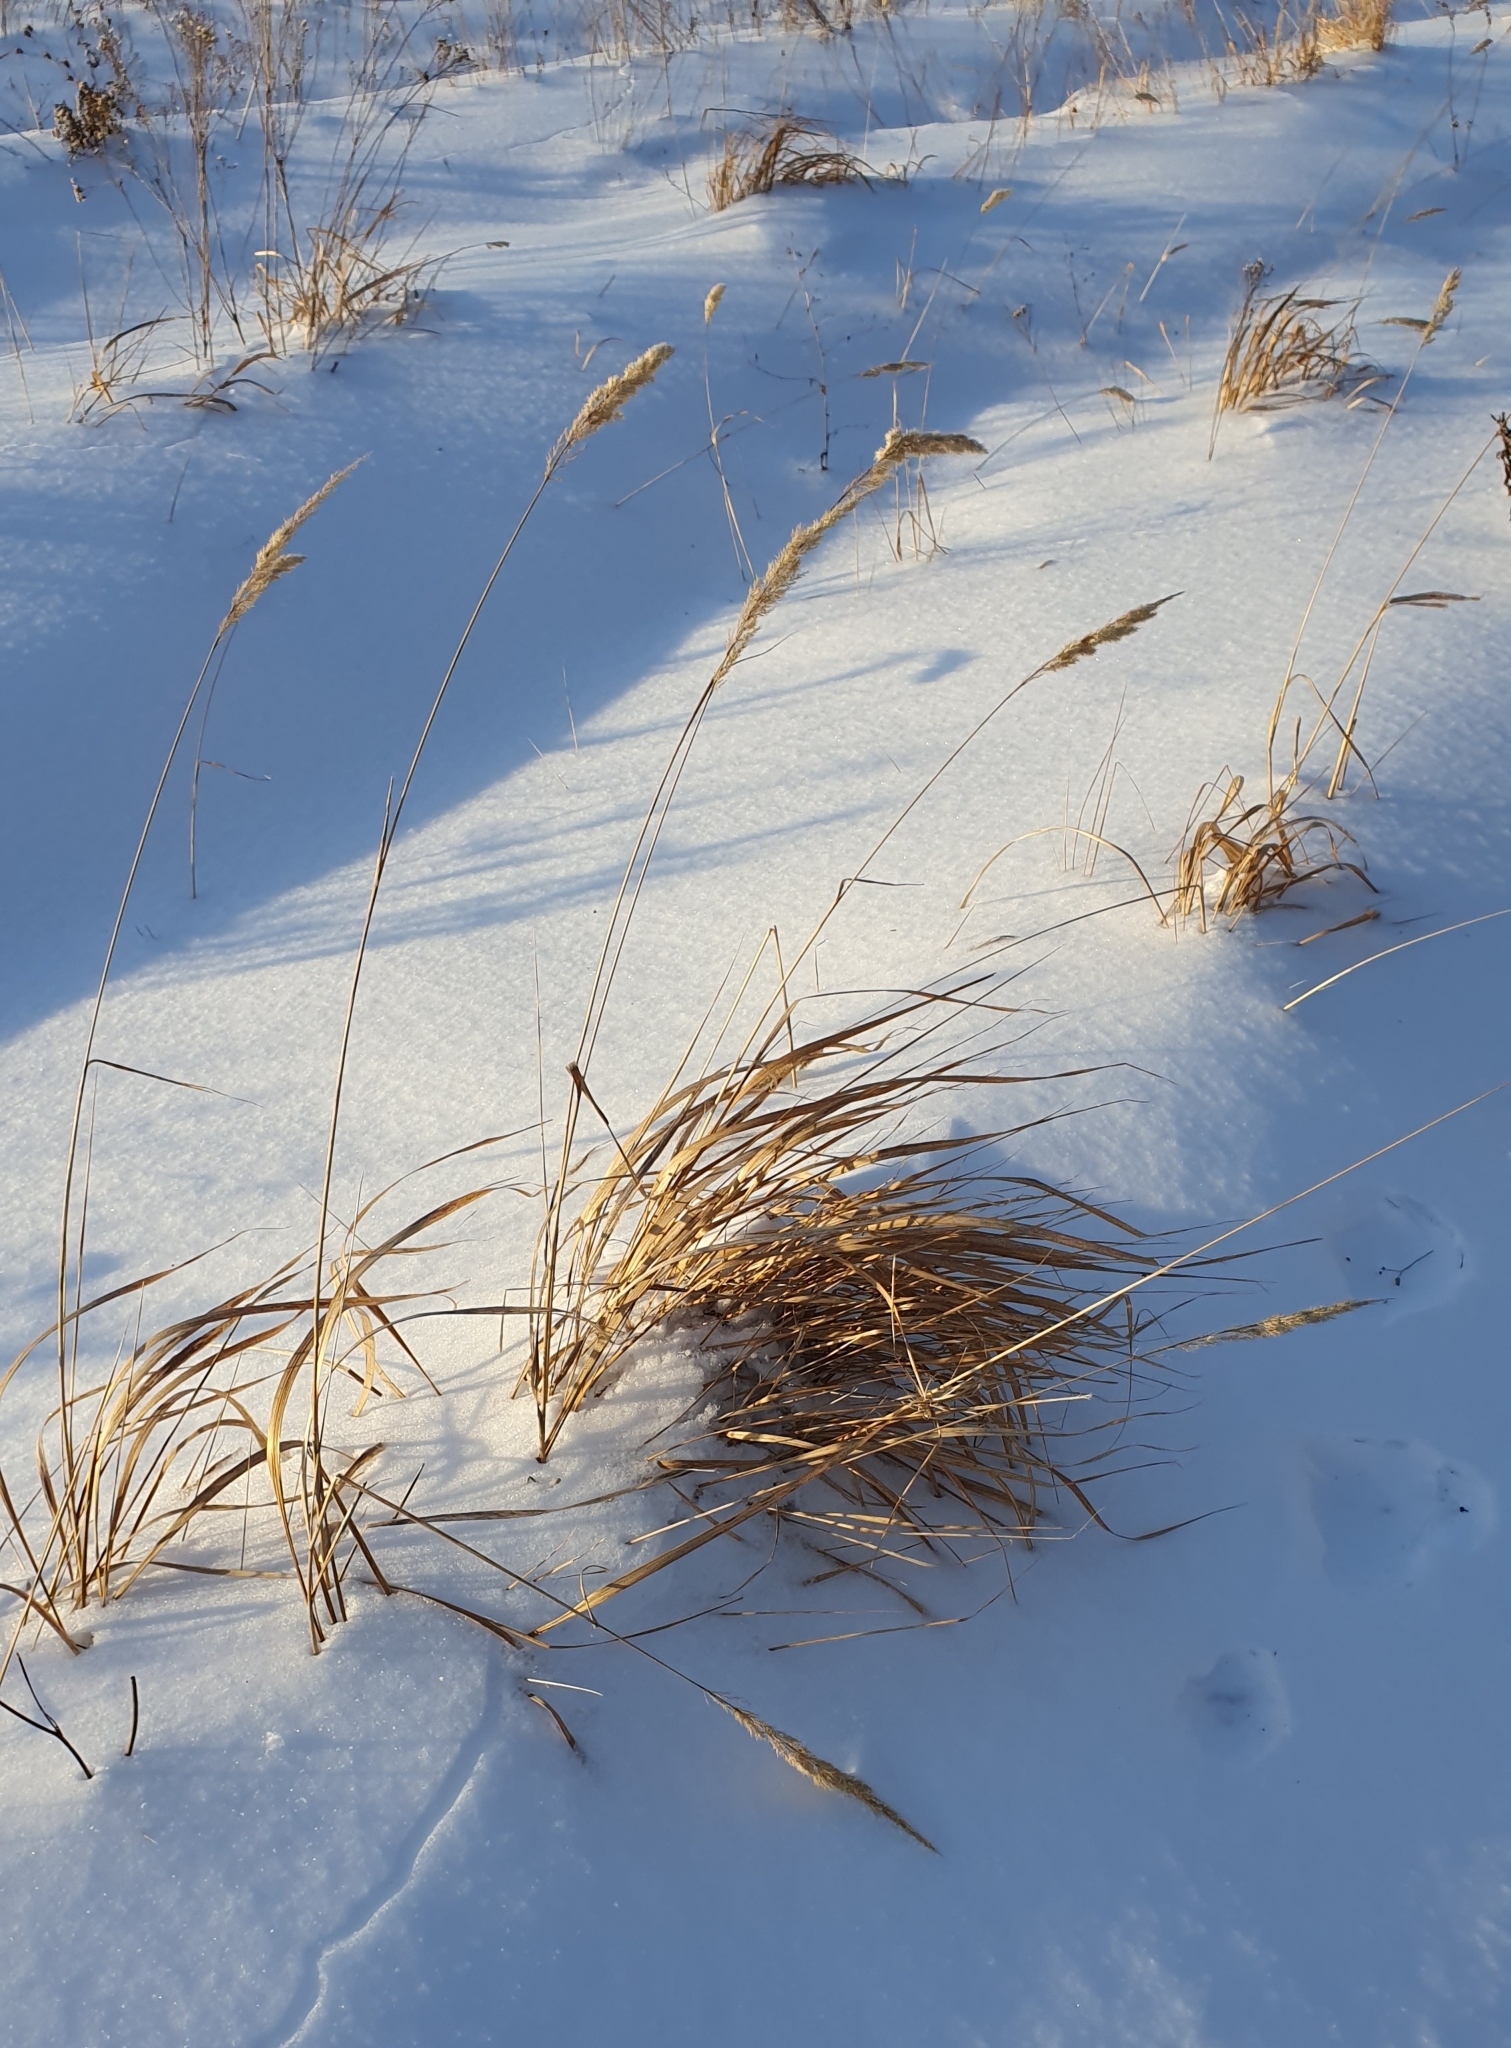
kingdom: Plantae
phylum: Tracheophyta
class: Liliopsida
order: Poales
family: Poaceae
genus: Calamagrostis
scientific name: Calamagrostis epigejos
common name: Wood small-reed
